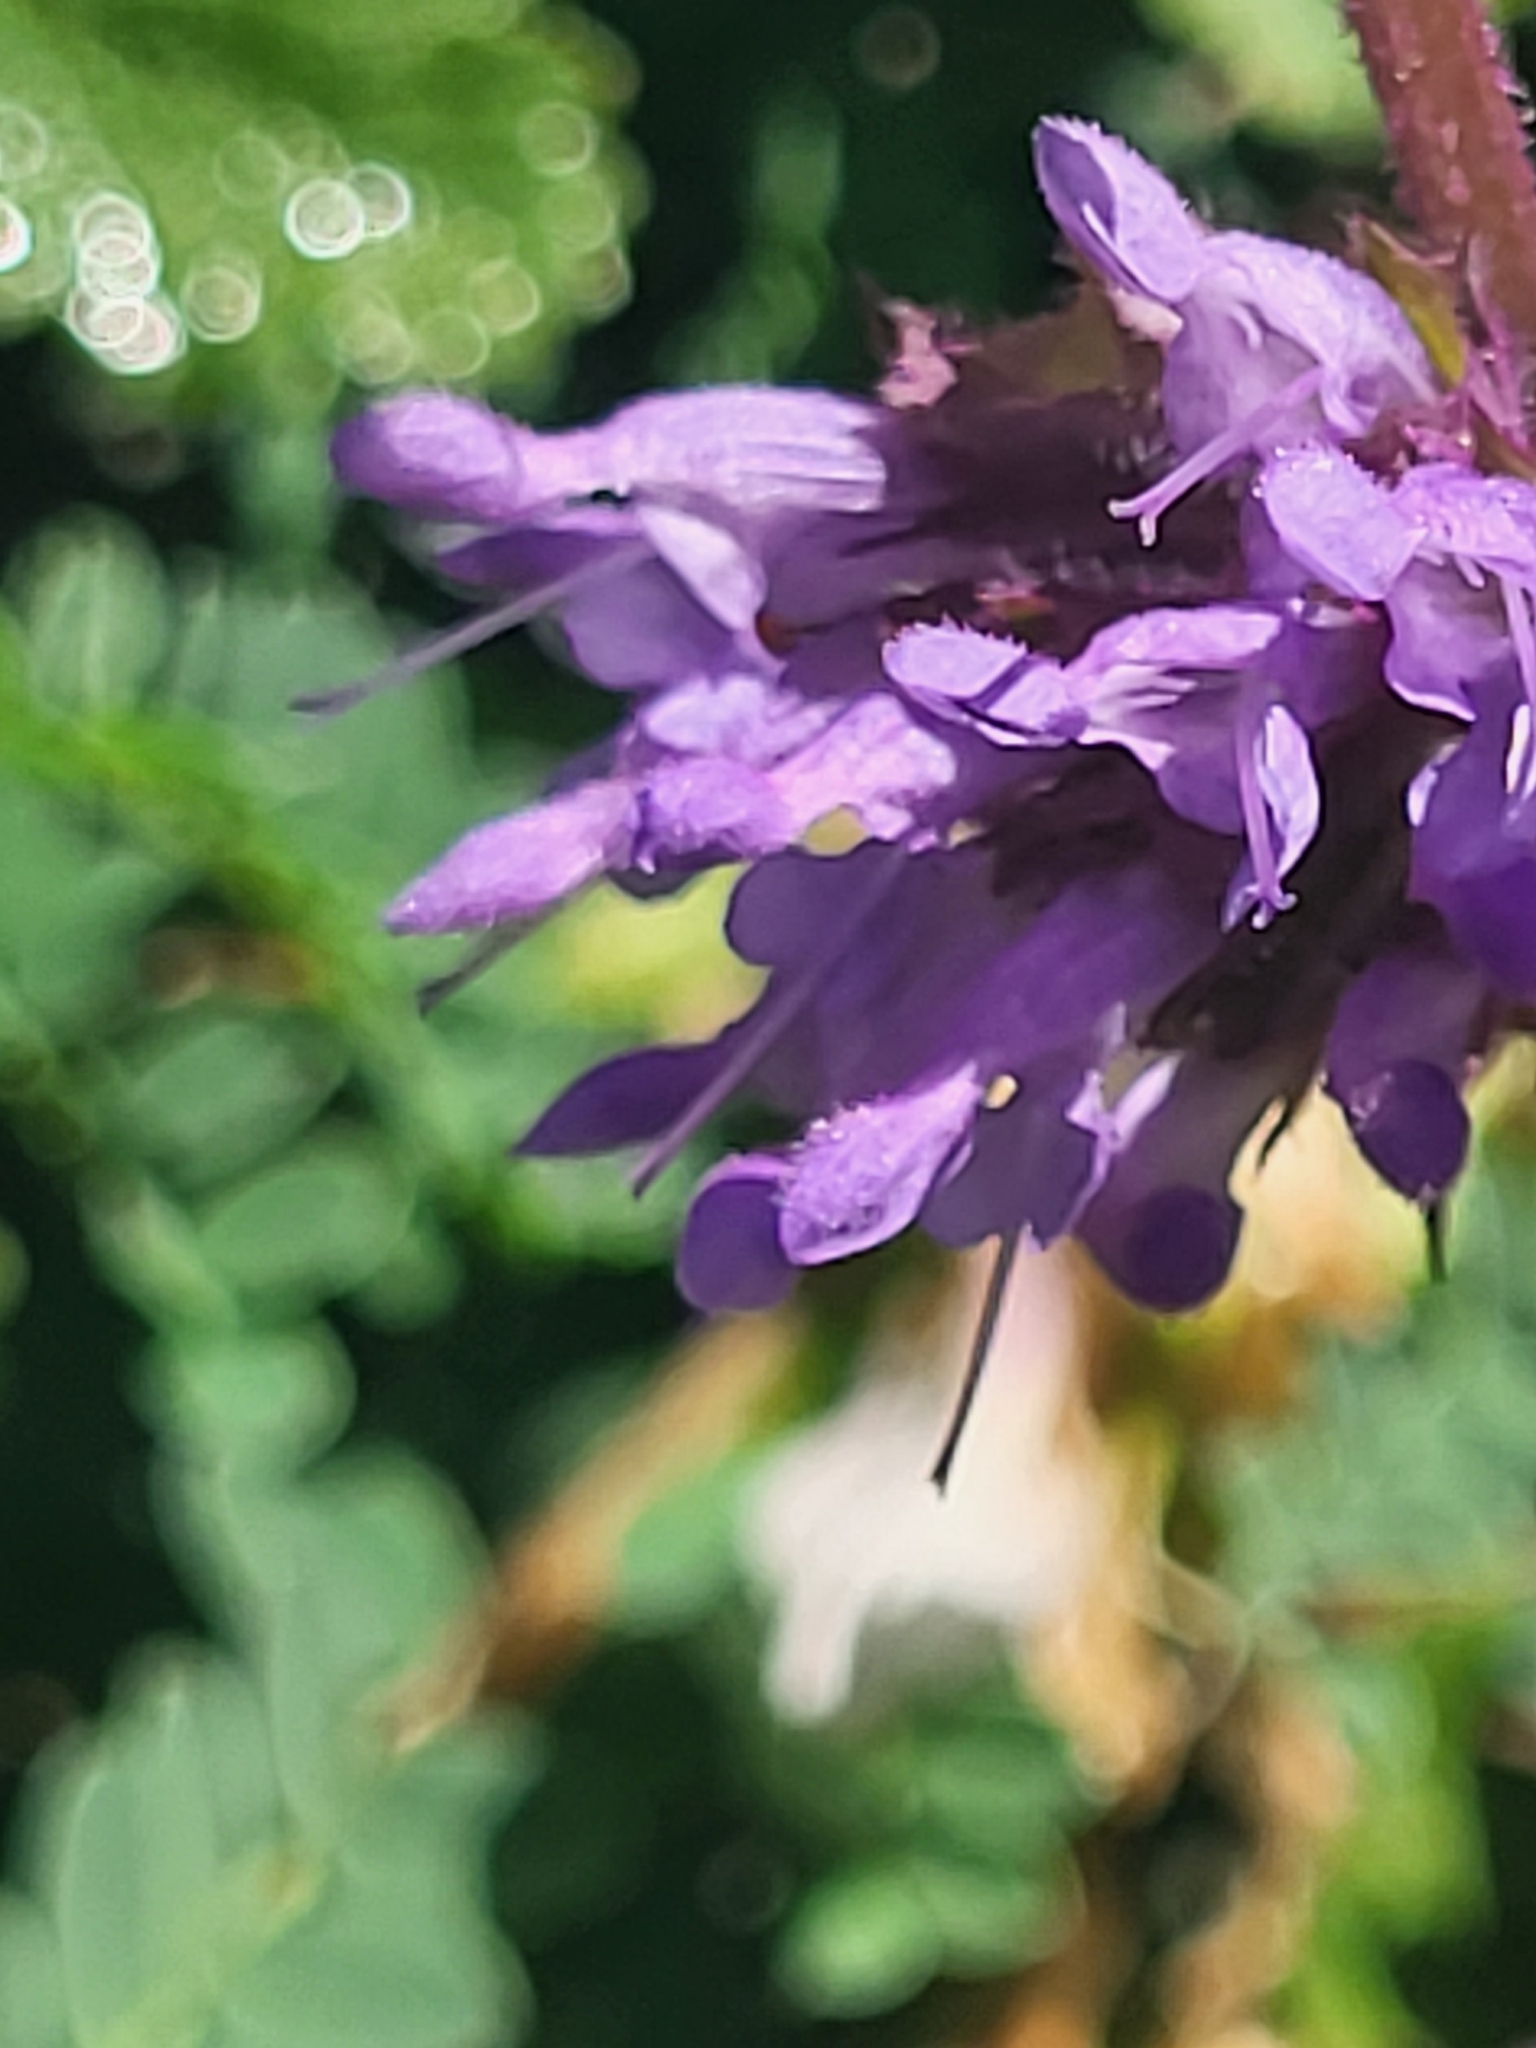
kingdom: Plantae
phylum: Tracheophyta
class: Magnoliopsida
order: Lamiales
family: Lamiaceae
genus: Salvia
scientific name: Salvia verticillata
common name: Whorled clary
